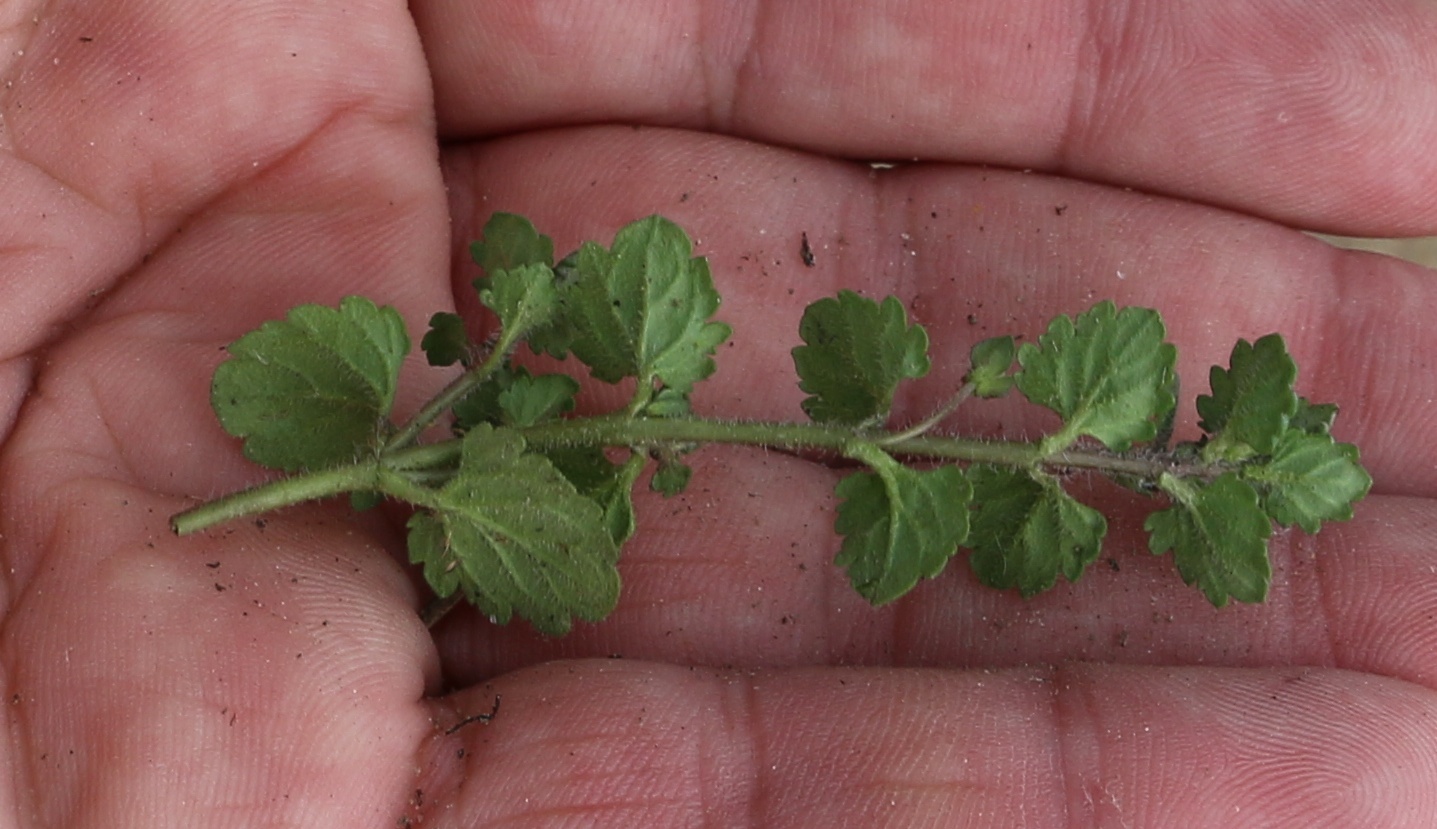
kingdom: Plantae
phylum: Tracheophyta
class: Magnoliopsida
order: Lamiales
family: Plantaginaceae
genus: Veronica
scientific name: Veronica polita
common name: Grey field-speedwell
